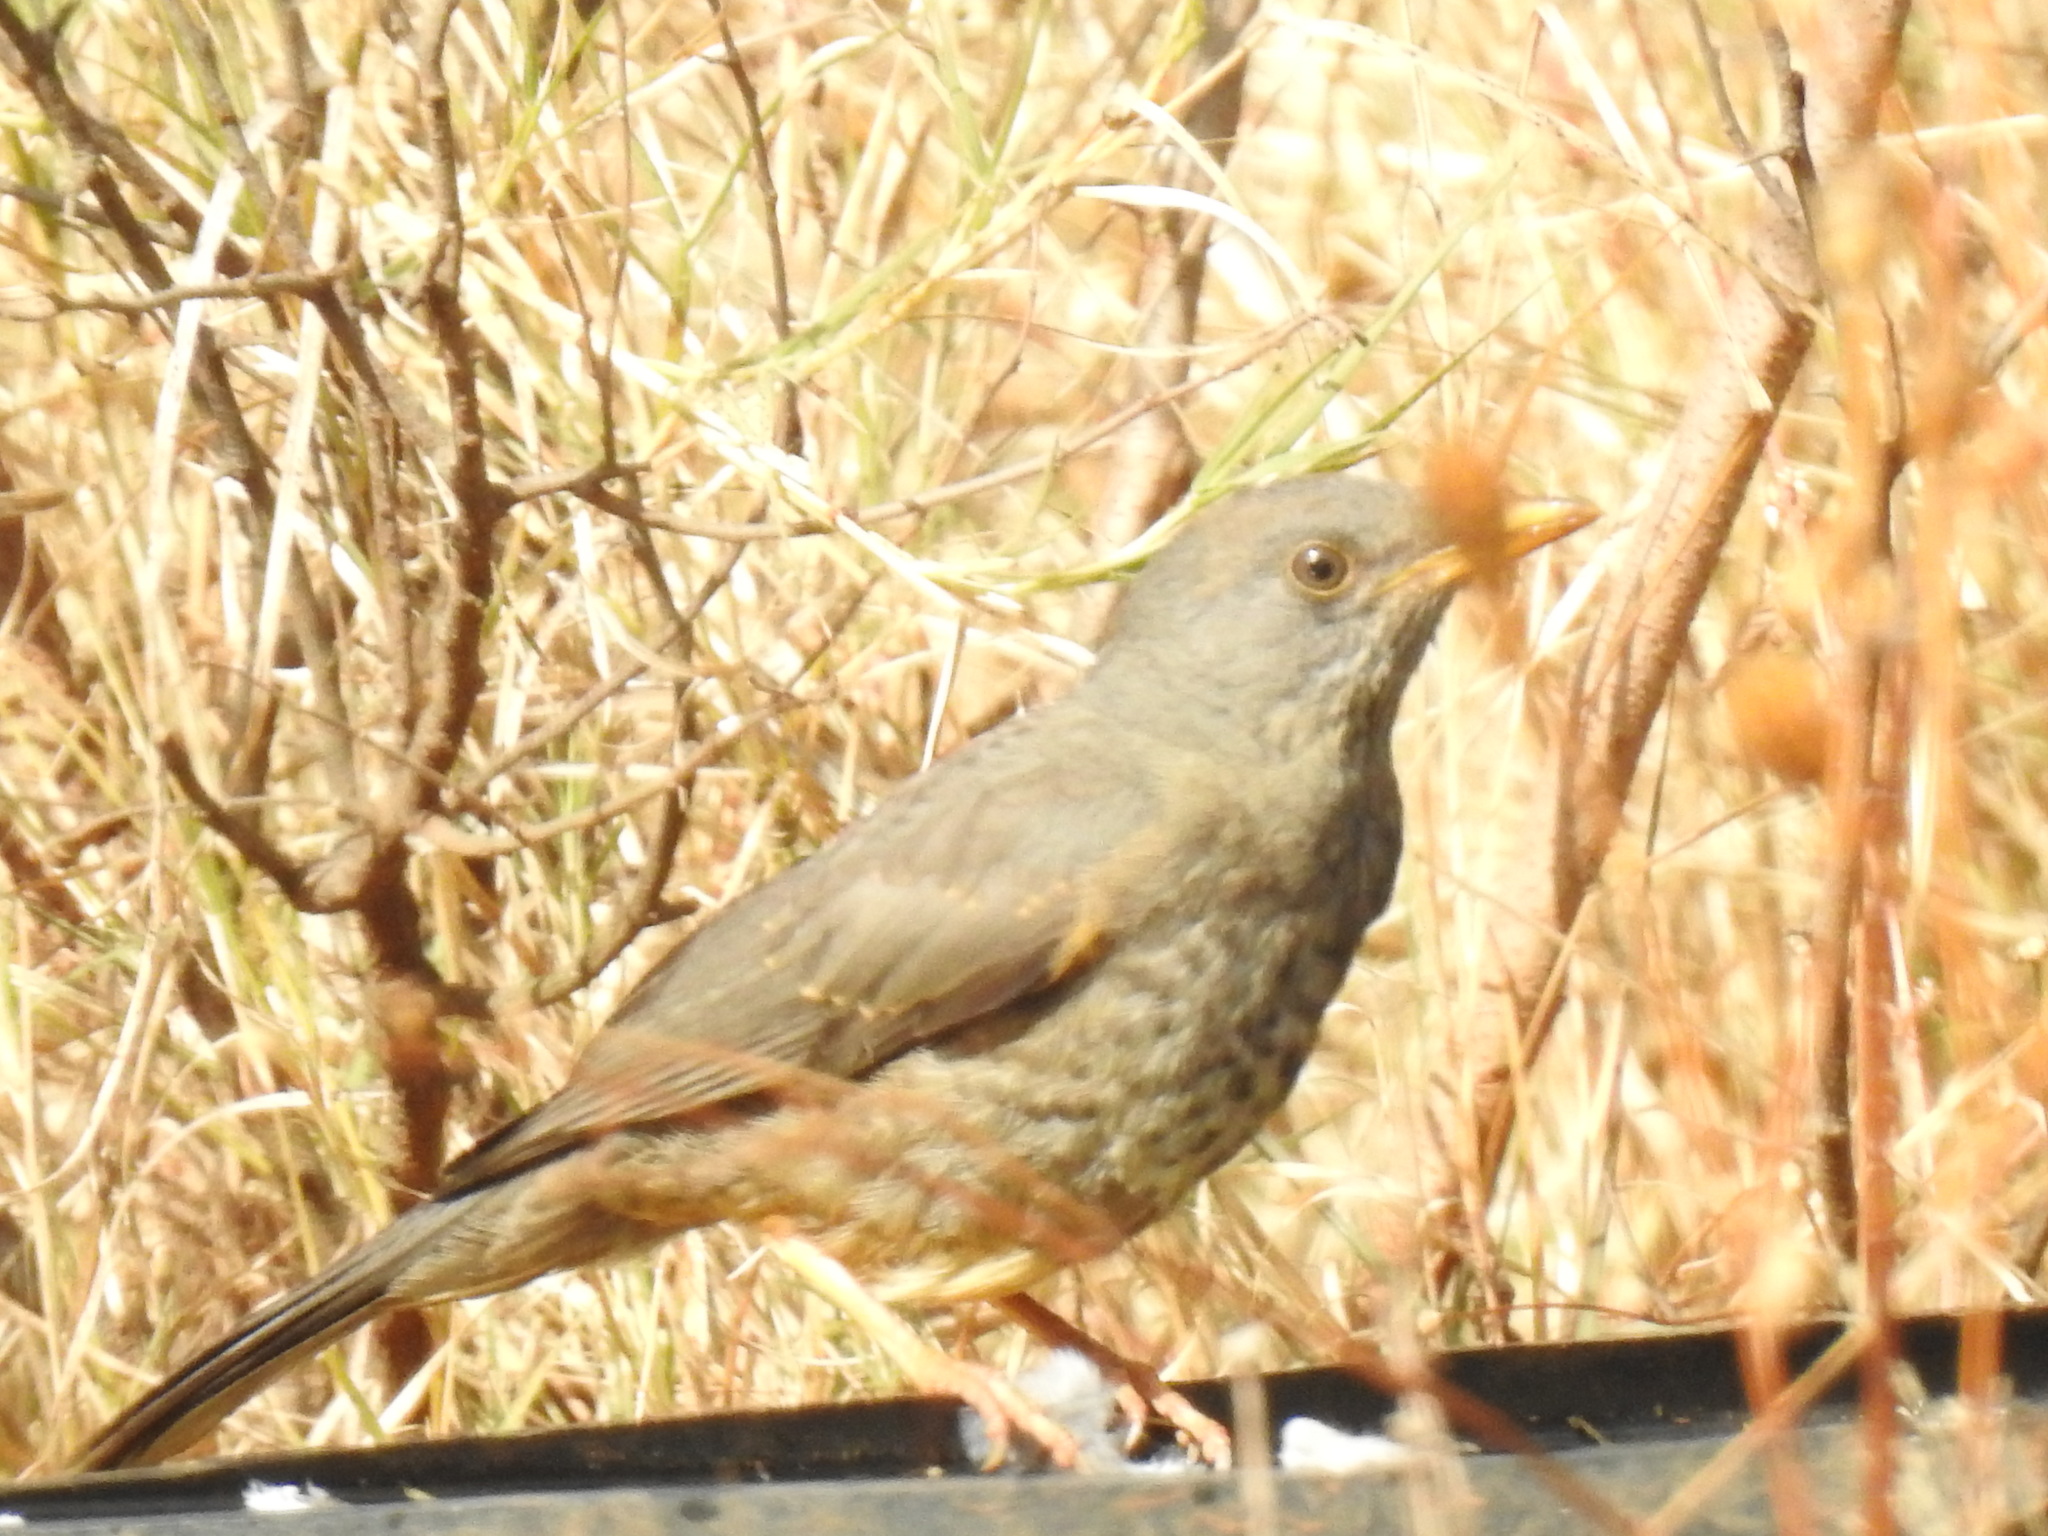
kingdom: Animalia
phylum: Chordata
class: Aves
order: Passeriformes
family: Turdidae
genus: Turdus
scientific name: Turdus smithi
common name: Karoo thrush
